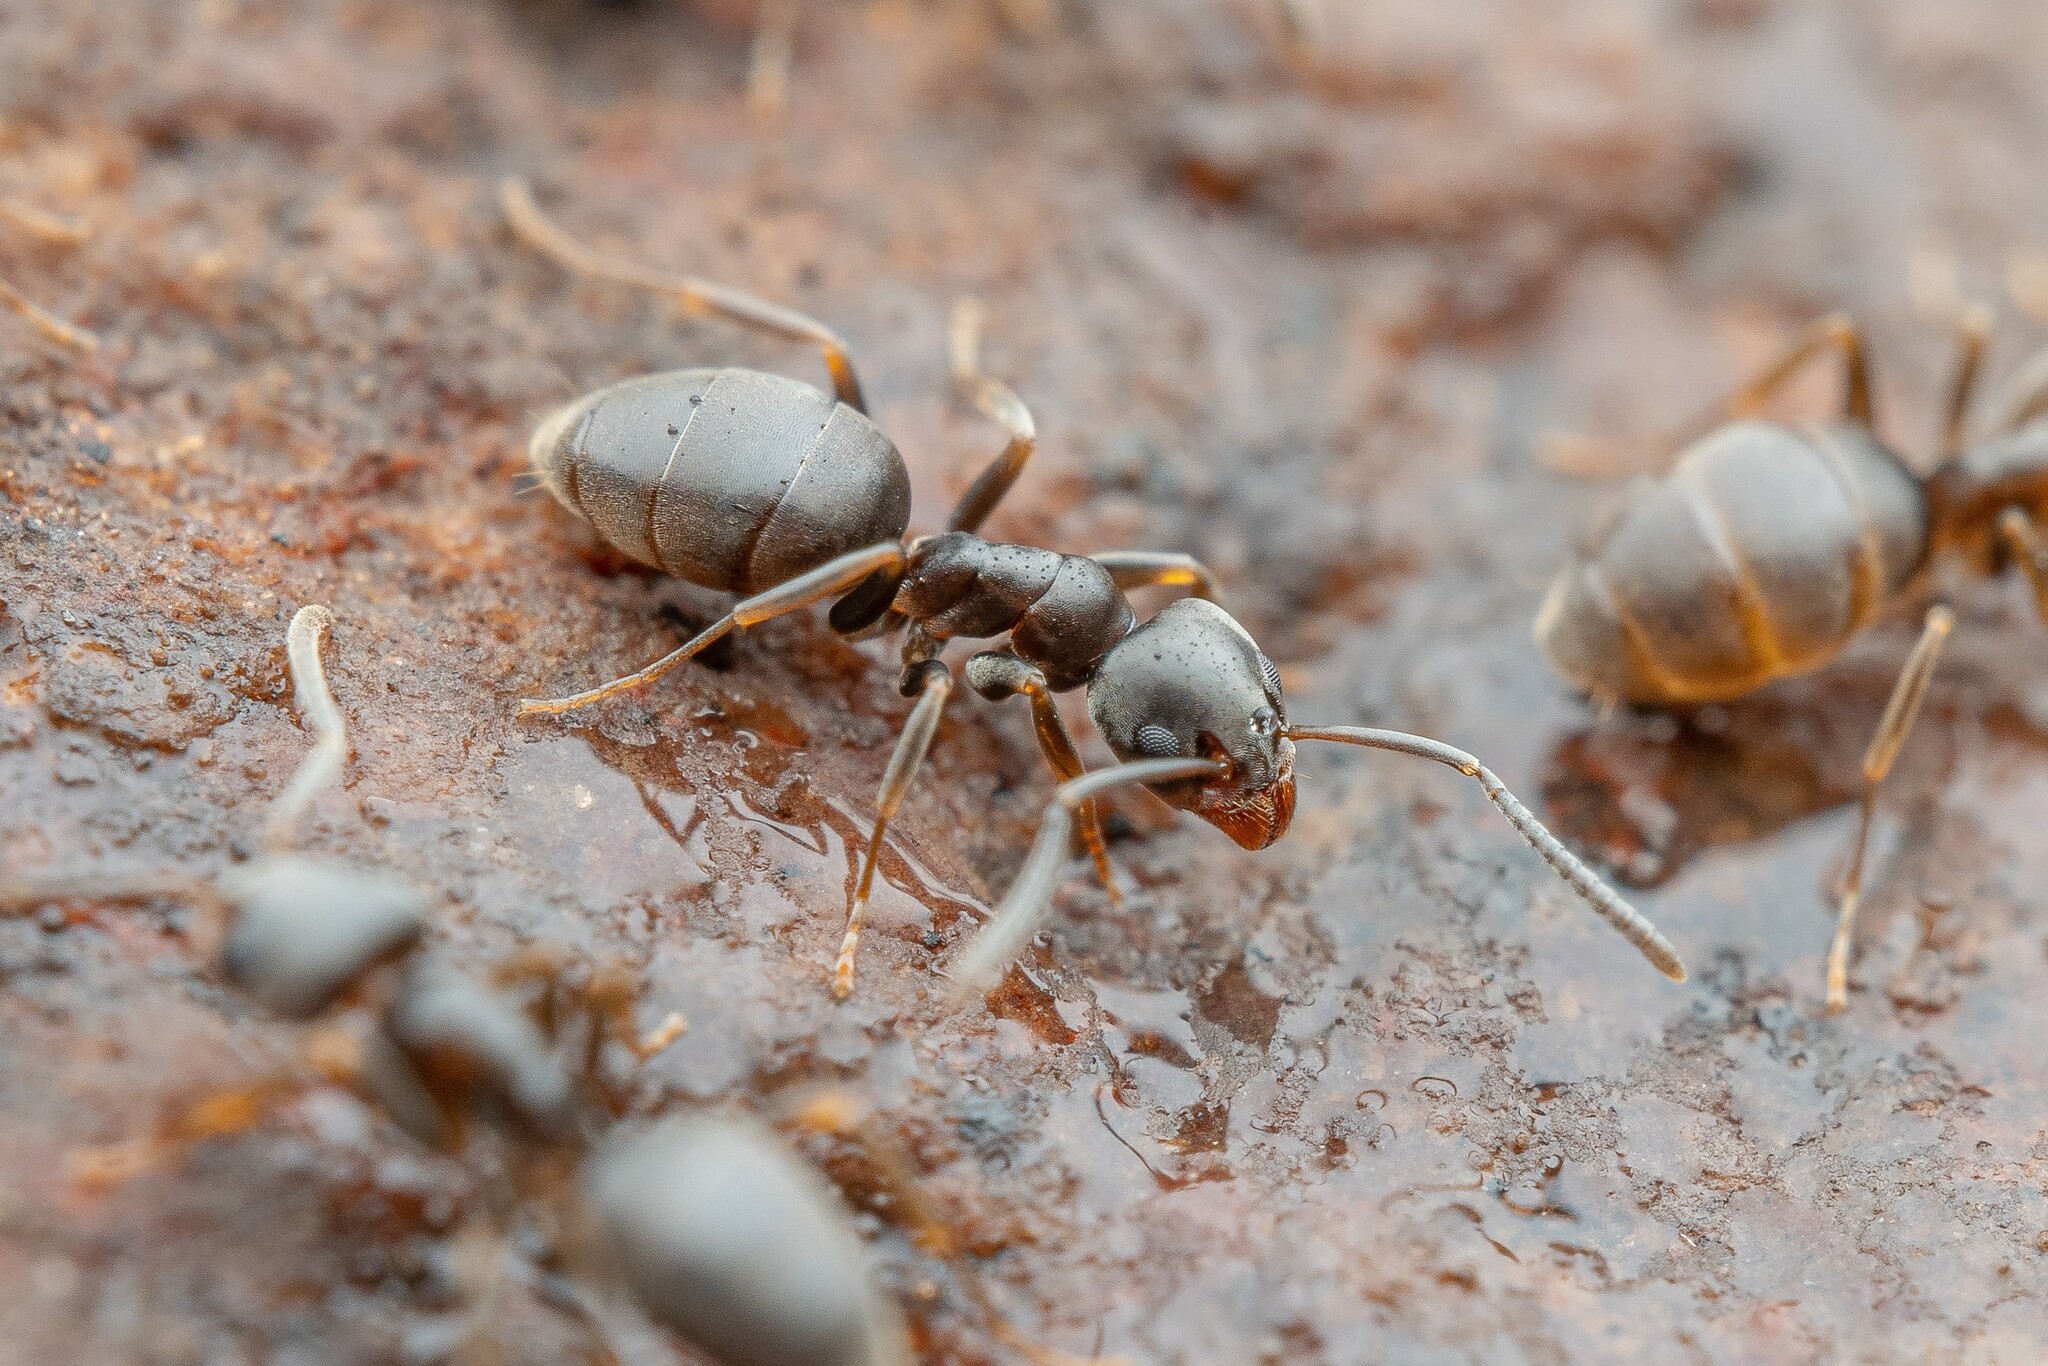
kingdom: Animalia
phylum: Arthropoda
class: Insecta
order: Hymenoptera
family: Formicidae
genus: Tapinoma
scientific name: Tapinoma sessile
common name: Odorous house ant
